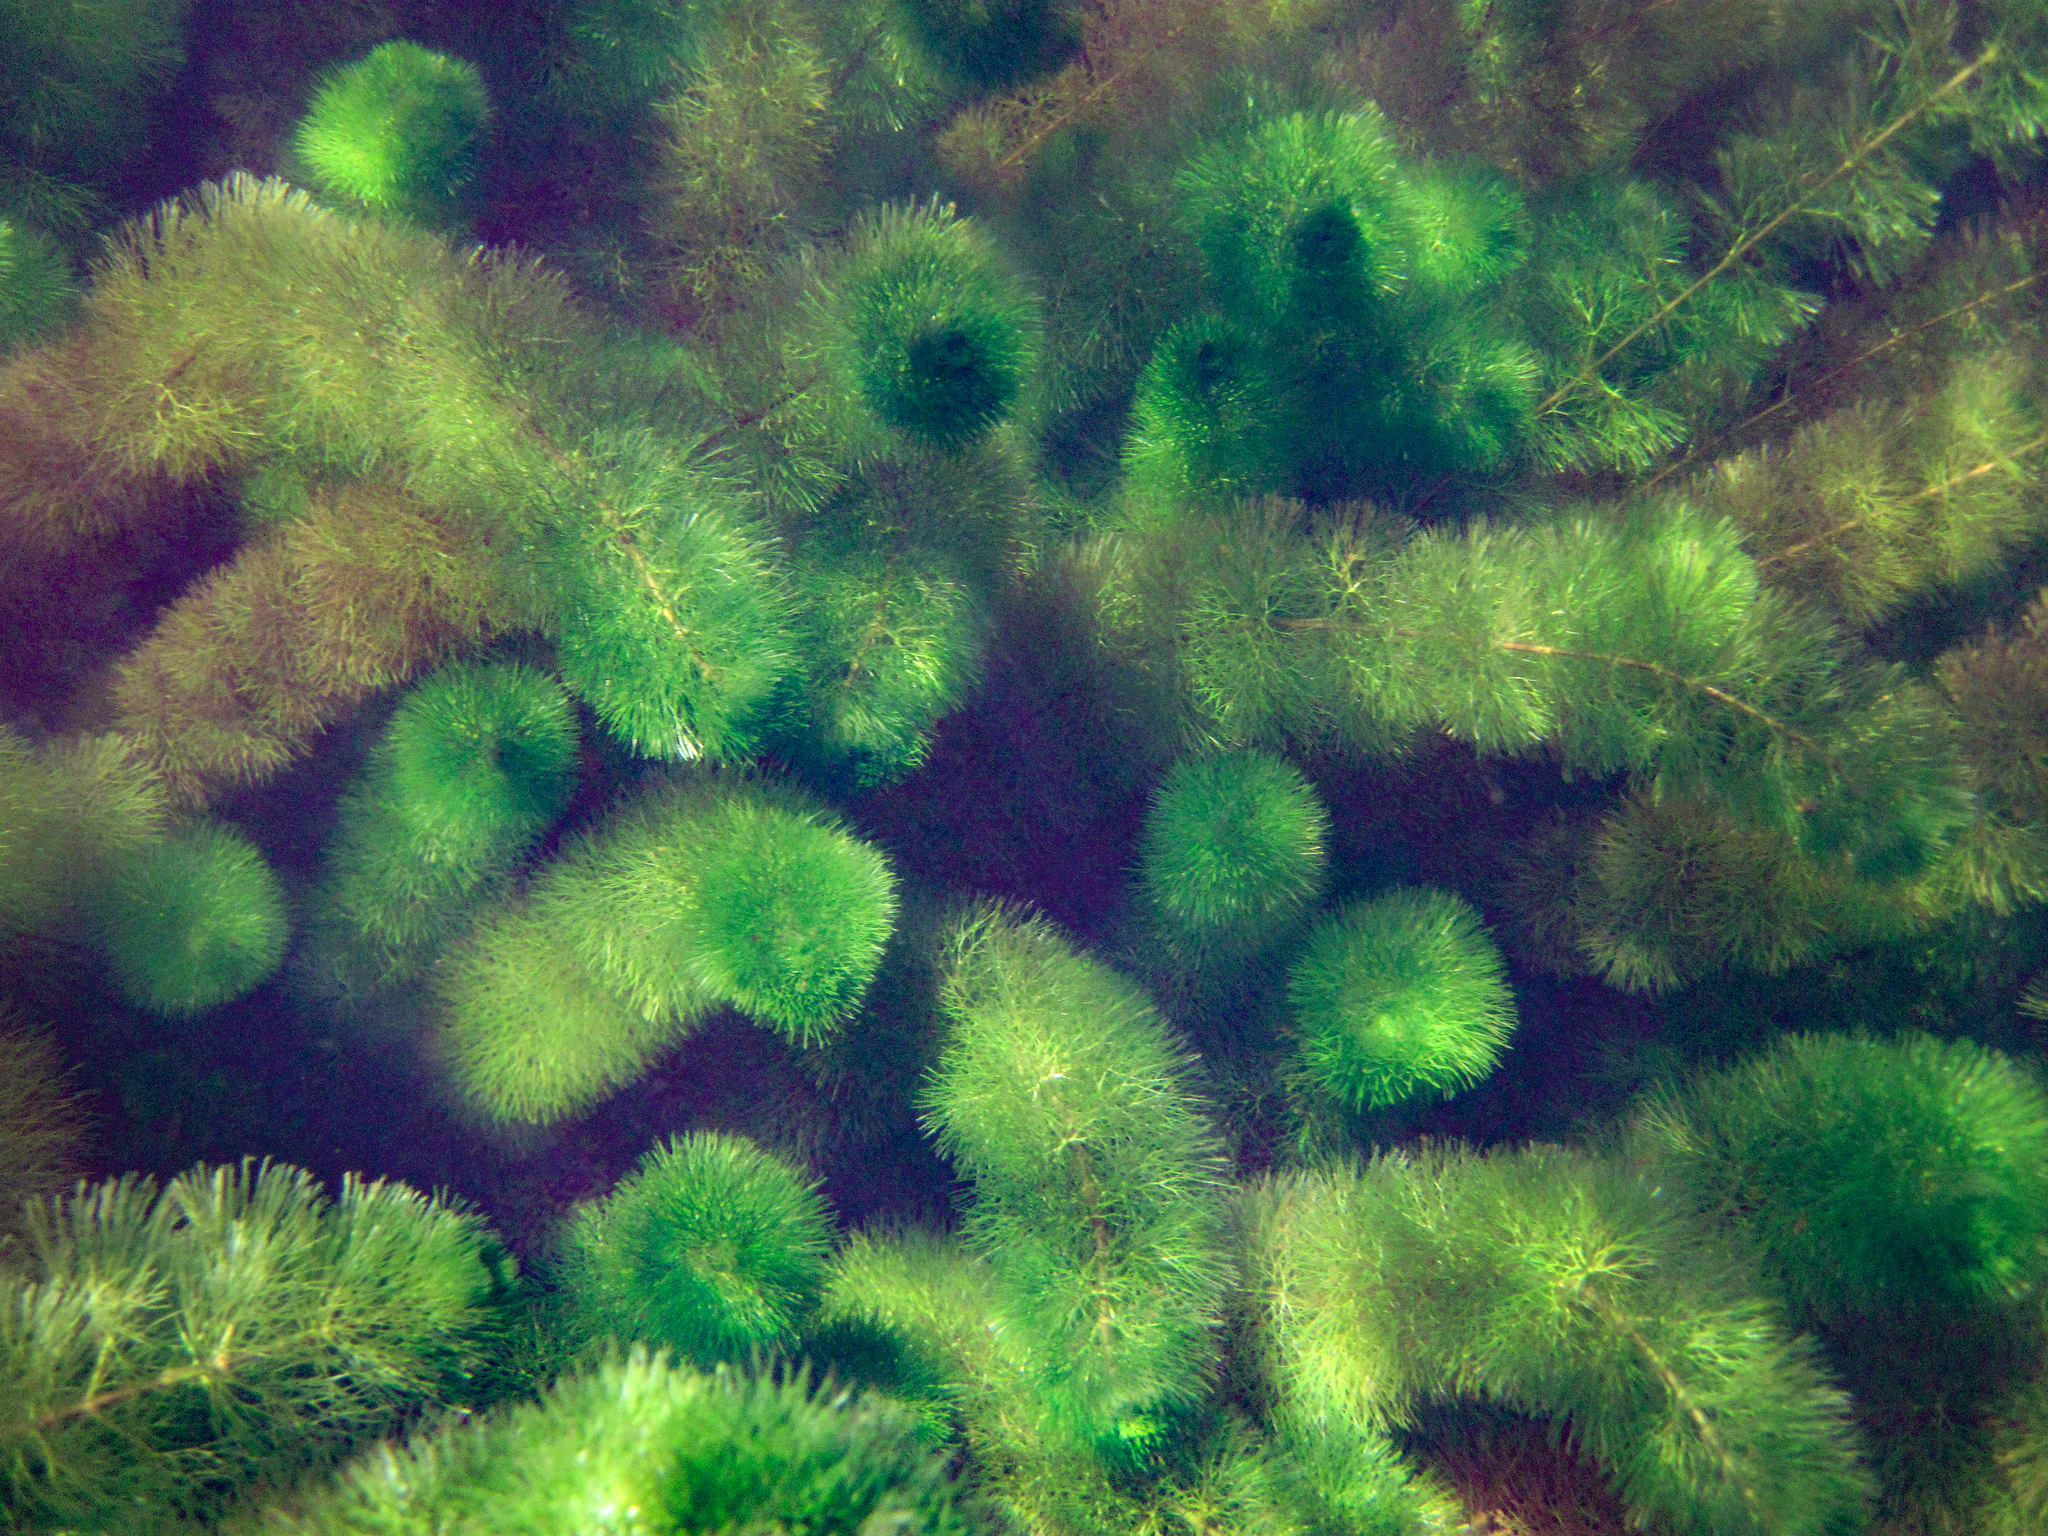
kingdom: Plantae
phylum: Tracheophyta
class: Magnoliopsida
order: Nymphaeales
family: Cabombaceae
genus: Cabomba
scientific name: Cabomba caroliniana
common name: Fanwort
